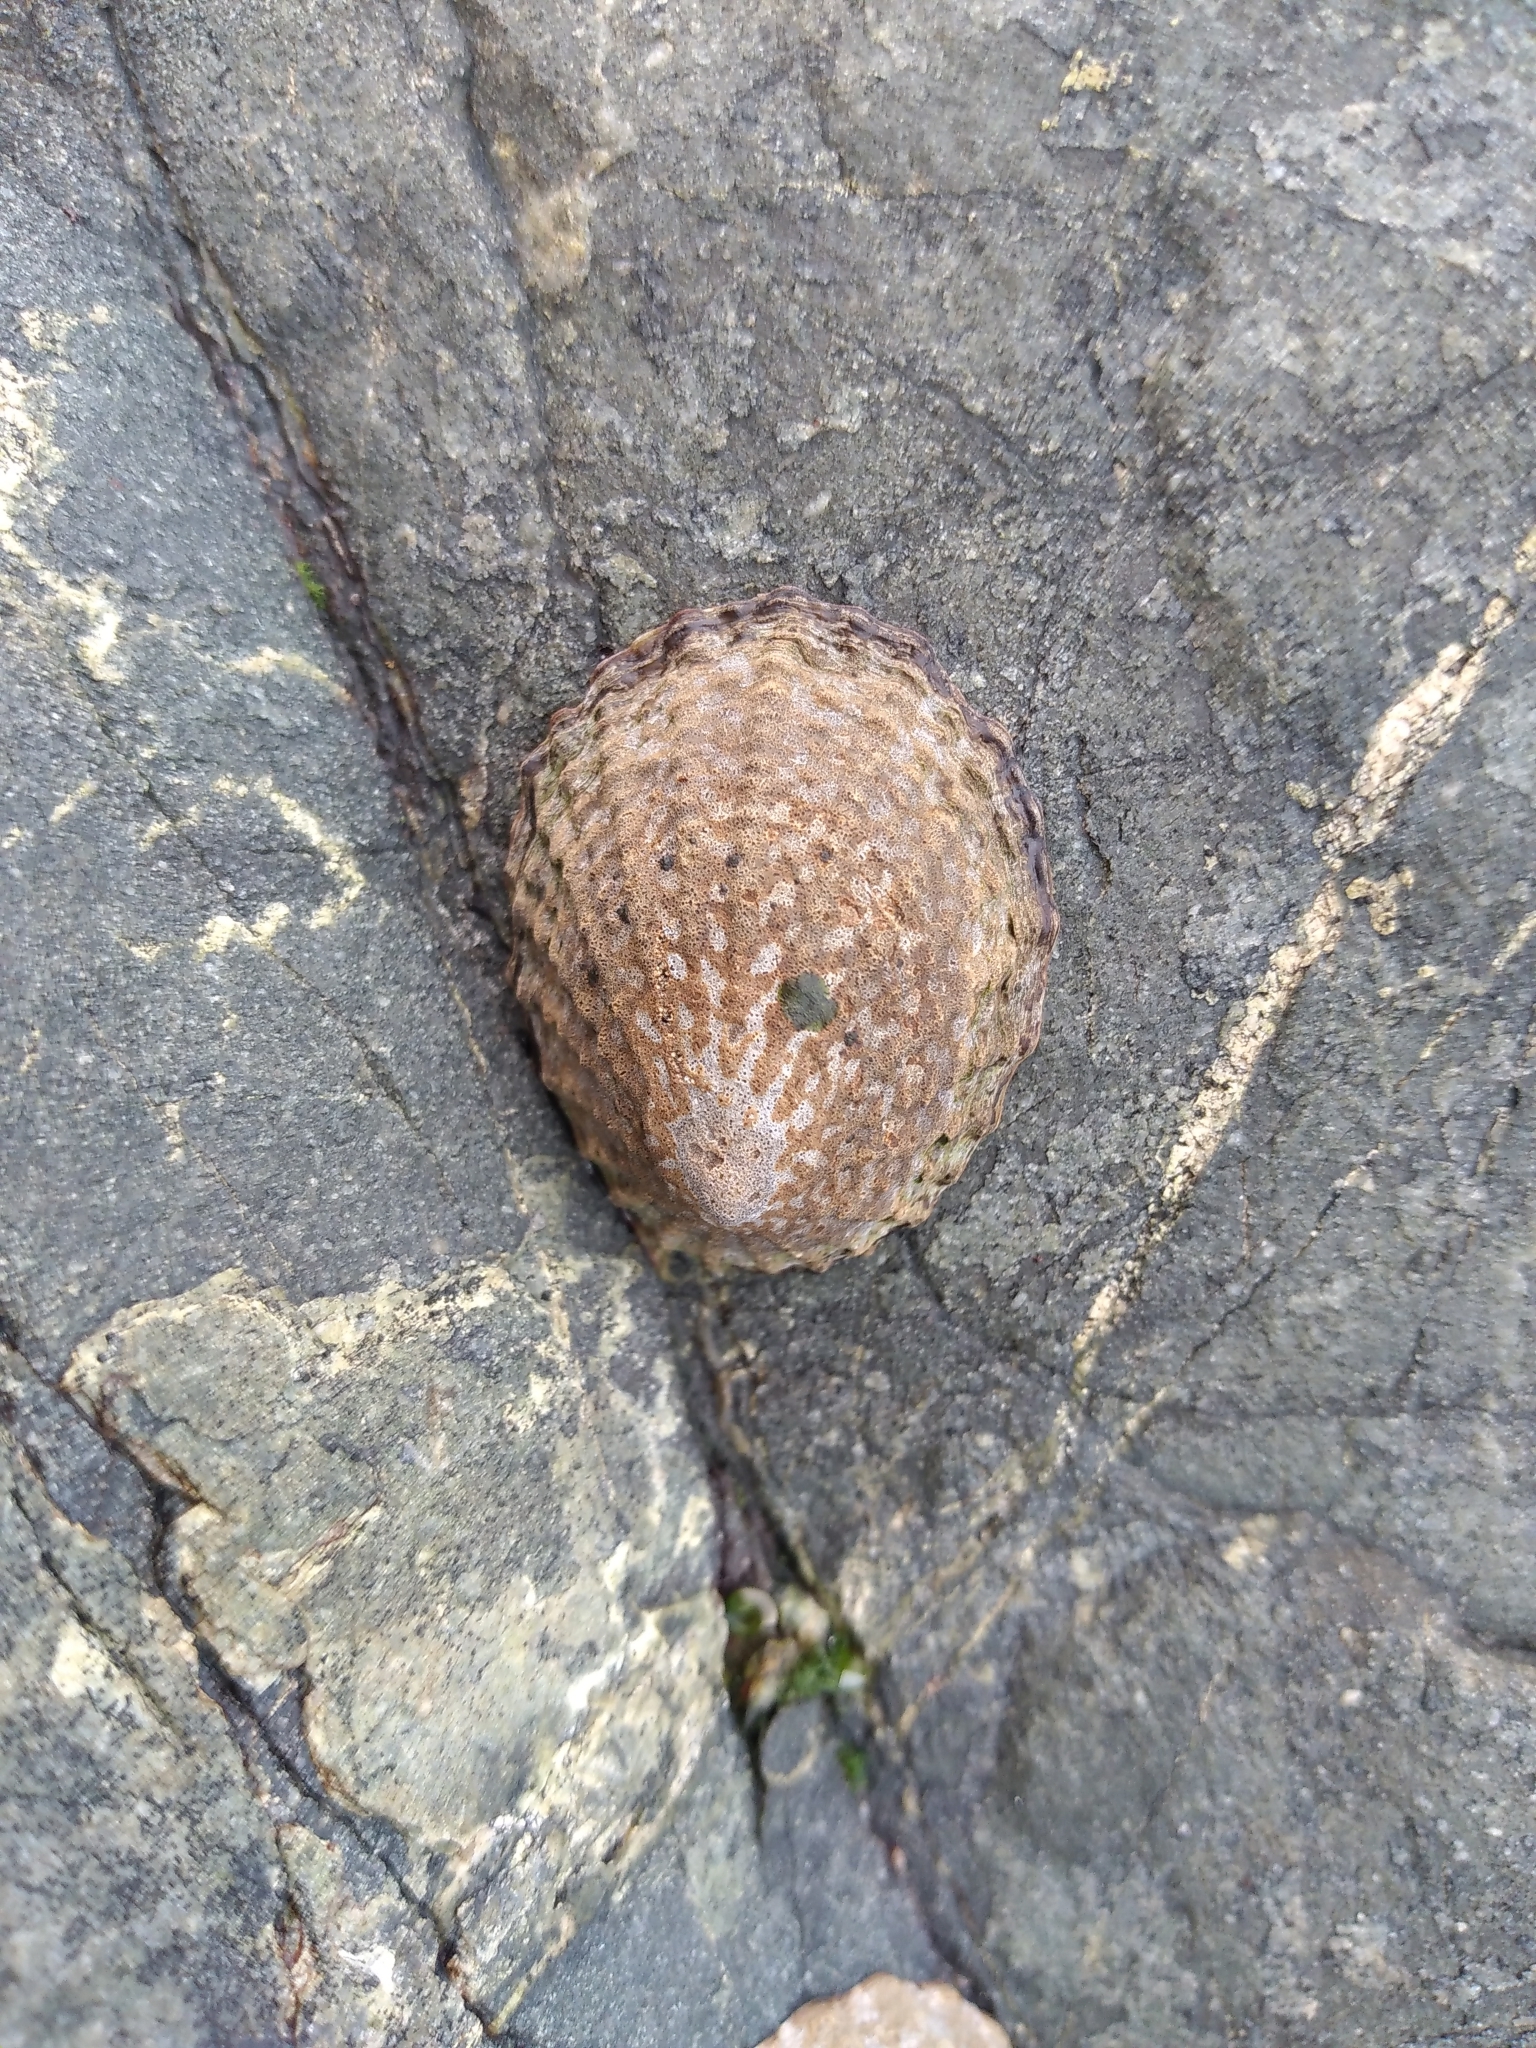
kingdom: Animalia
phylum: Mollusca
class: Gastropoda
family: Nacellidae
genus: Cellana
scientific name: Cellana denticulata
